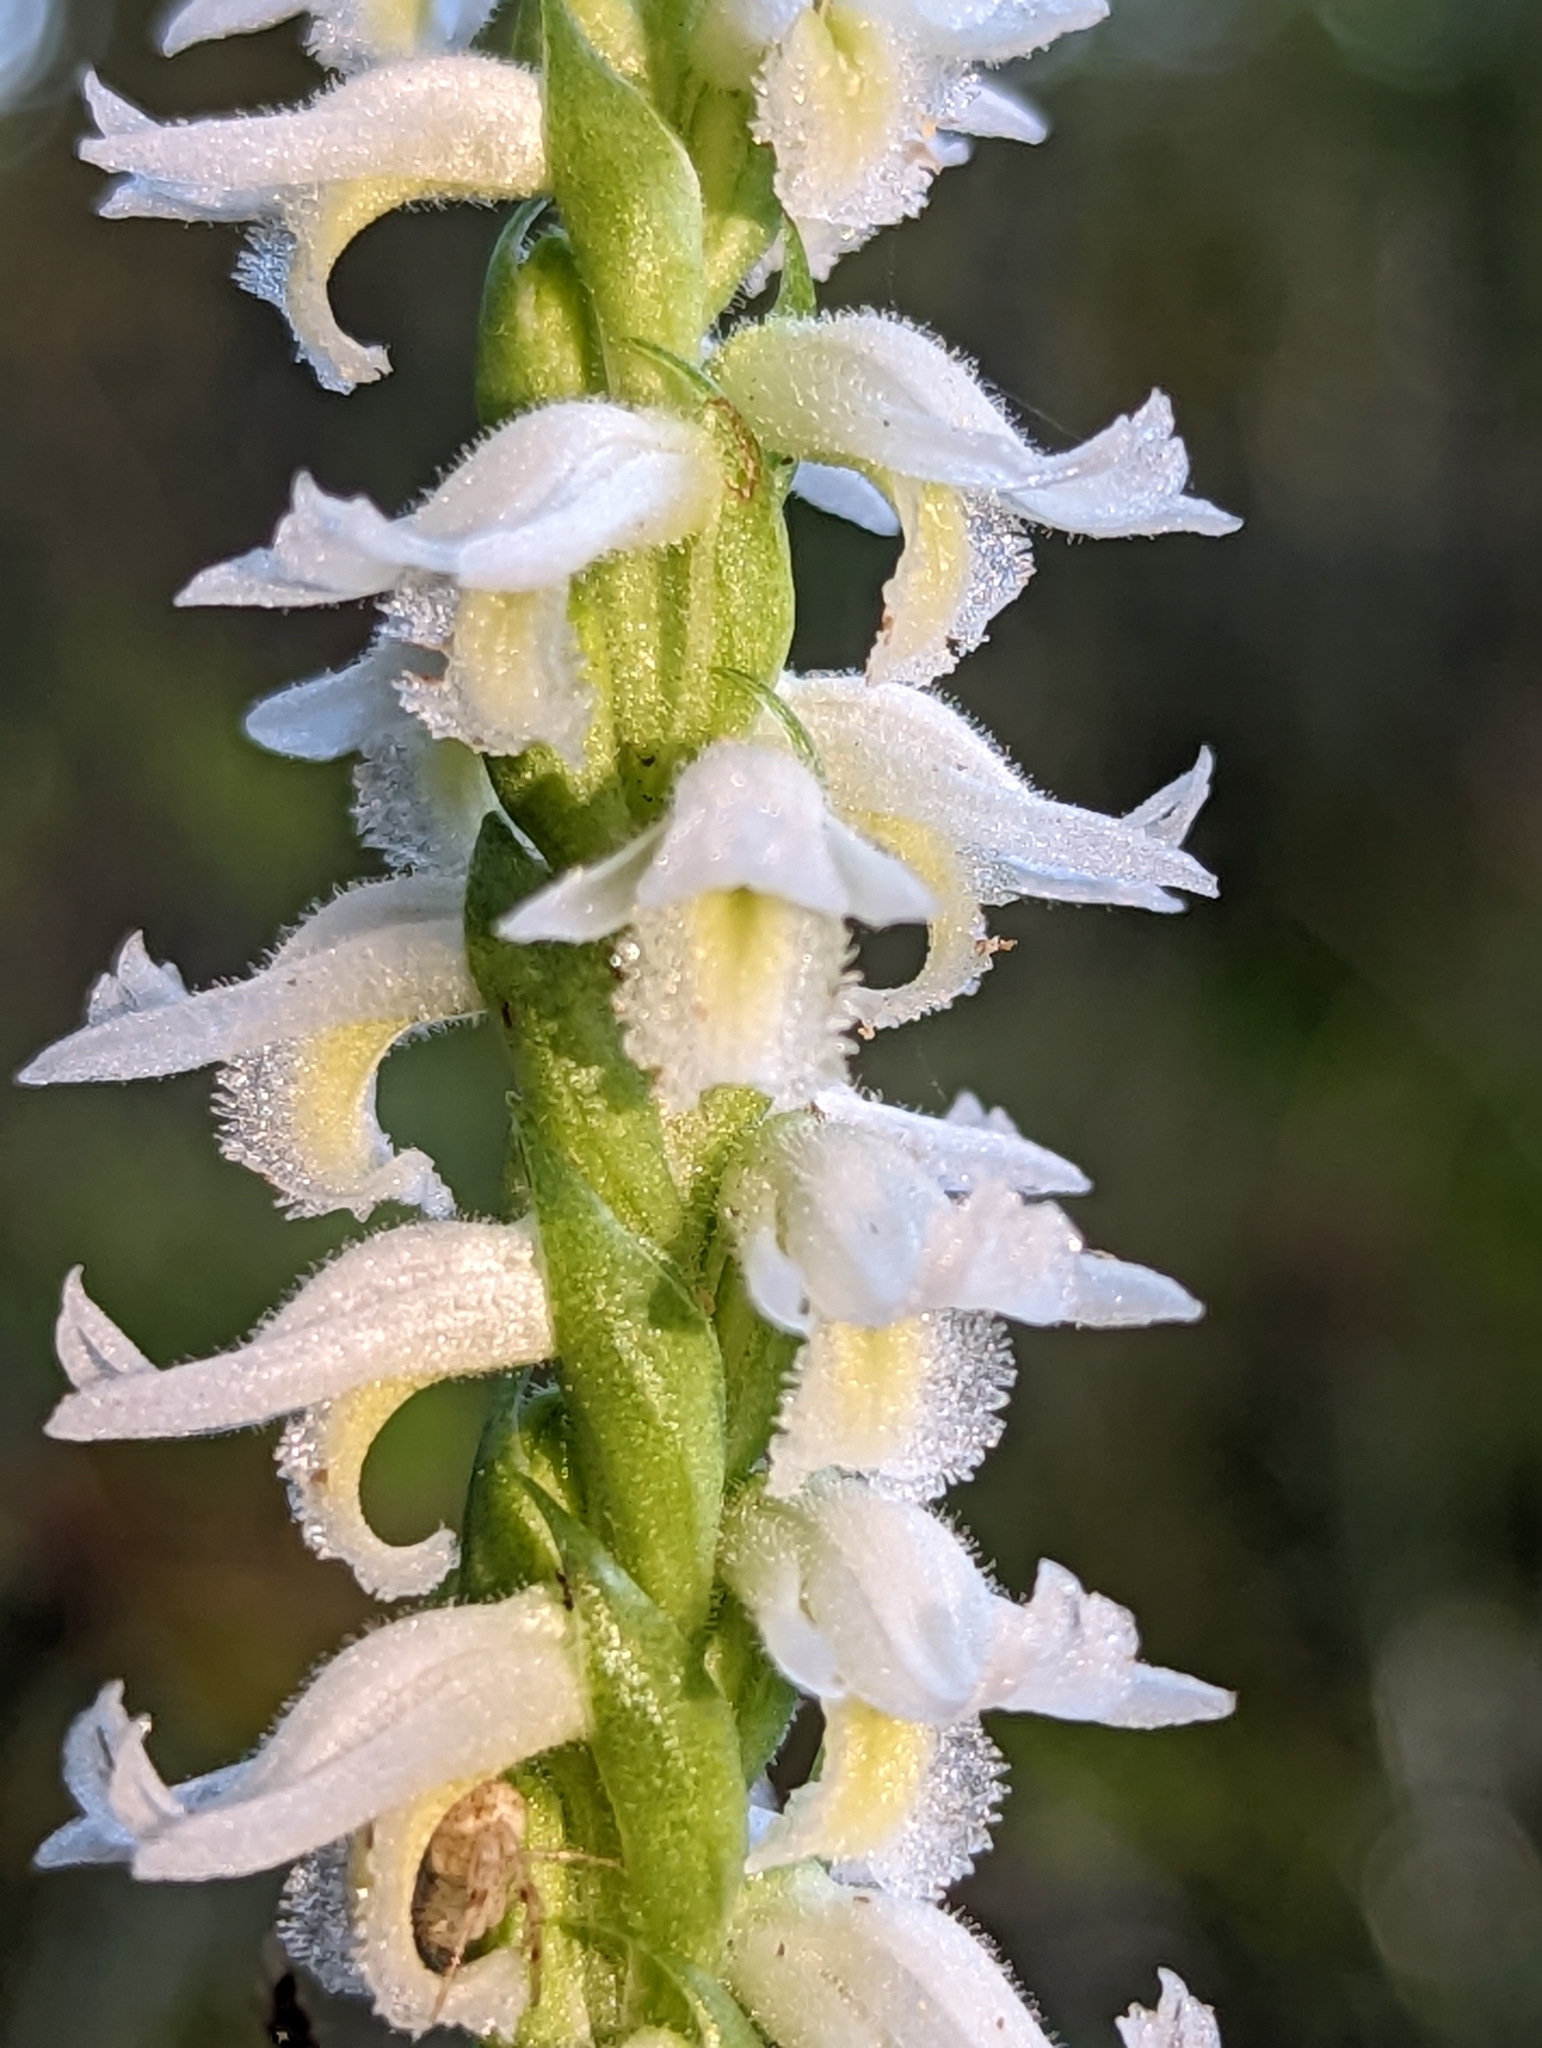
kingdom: Plantae
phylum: Tracheophyta
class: Liliopsida
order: Asparagales
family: Orchidaceae
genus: Spiranthes
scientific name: Spiranthes odorata
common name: Marsh ladies'-tresses
